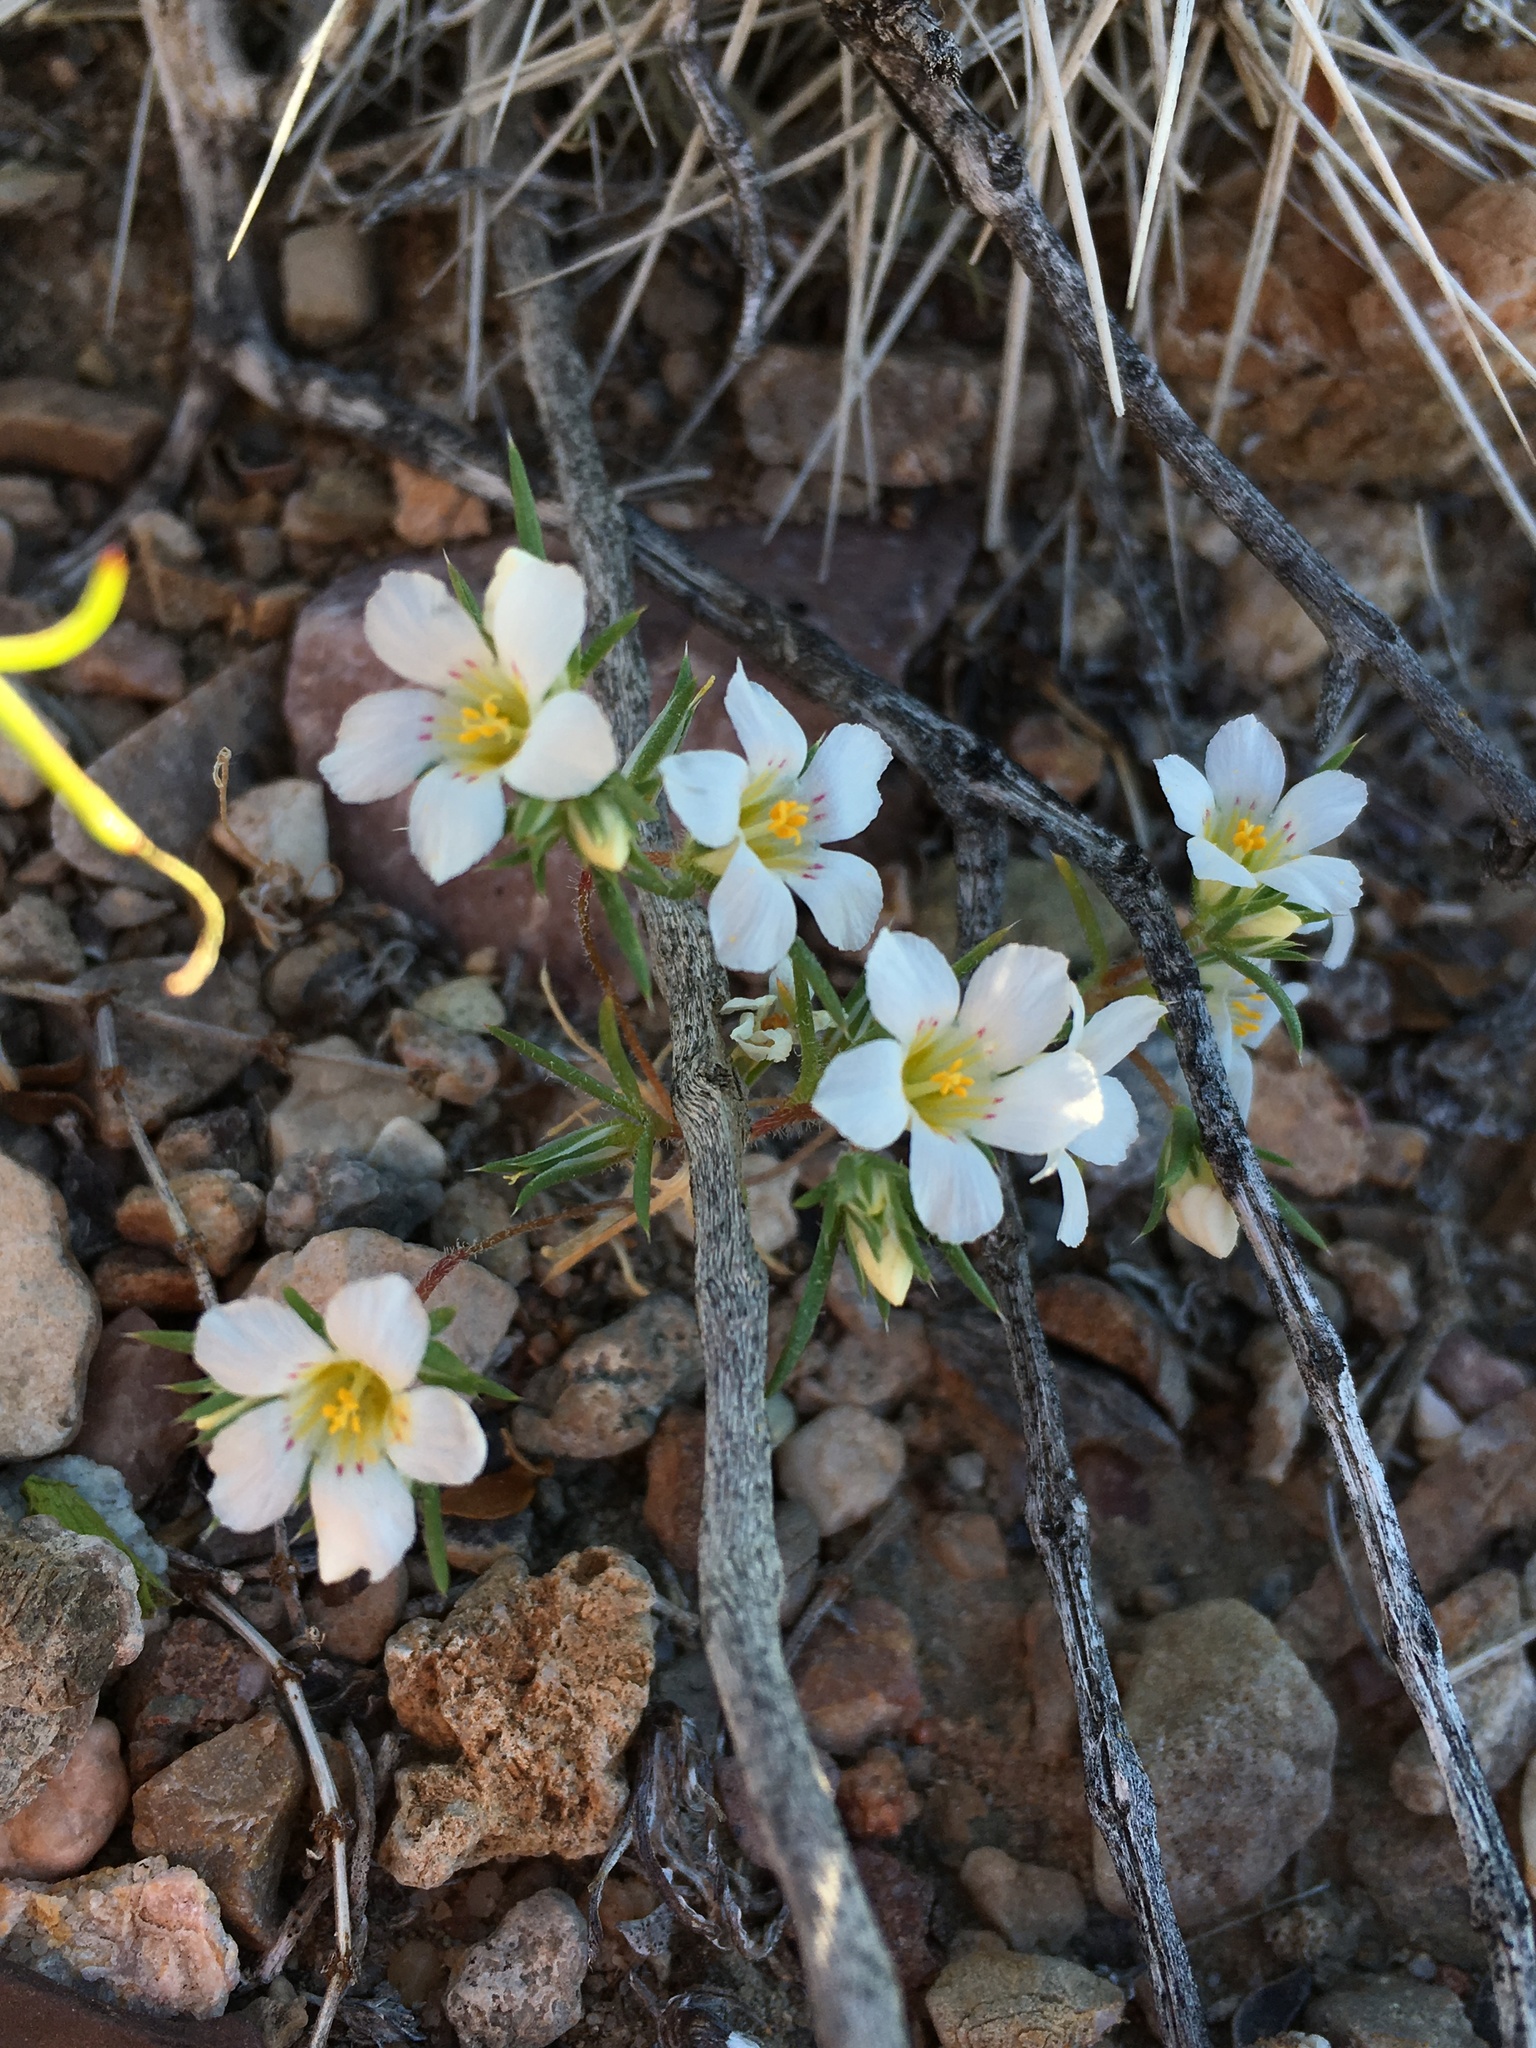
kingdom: Plantae
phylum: Tracheophyta
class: Magnoliopsida
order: Ericales
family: Polemoniaceae
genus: Linanthus
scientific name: Linanthus demissus
